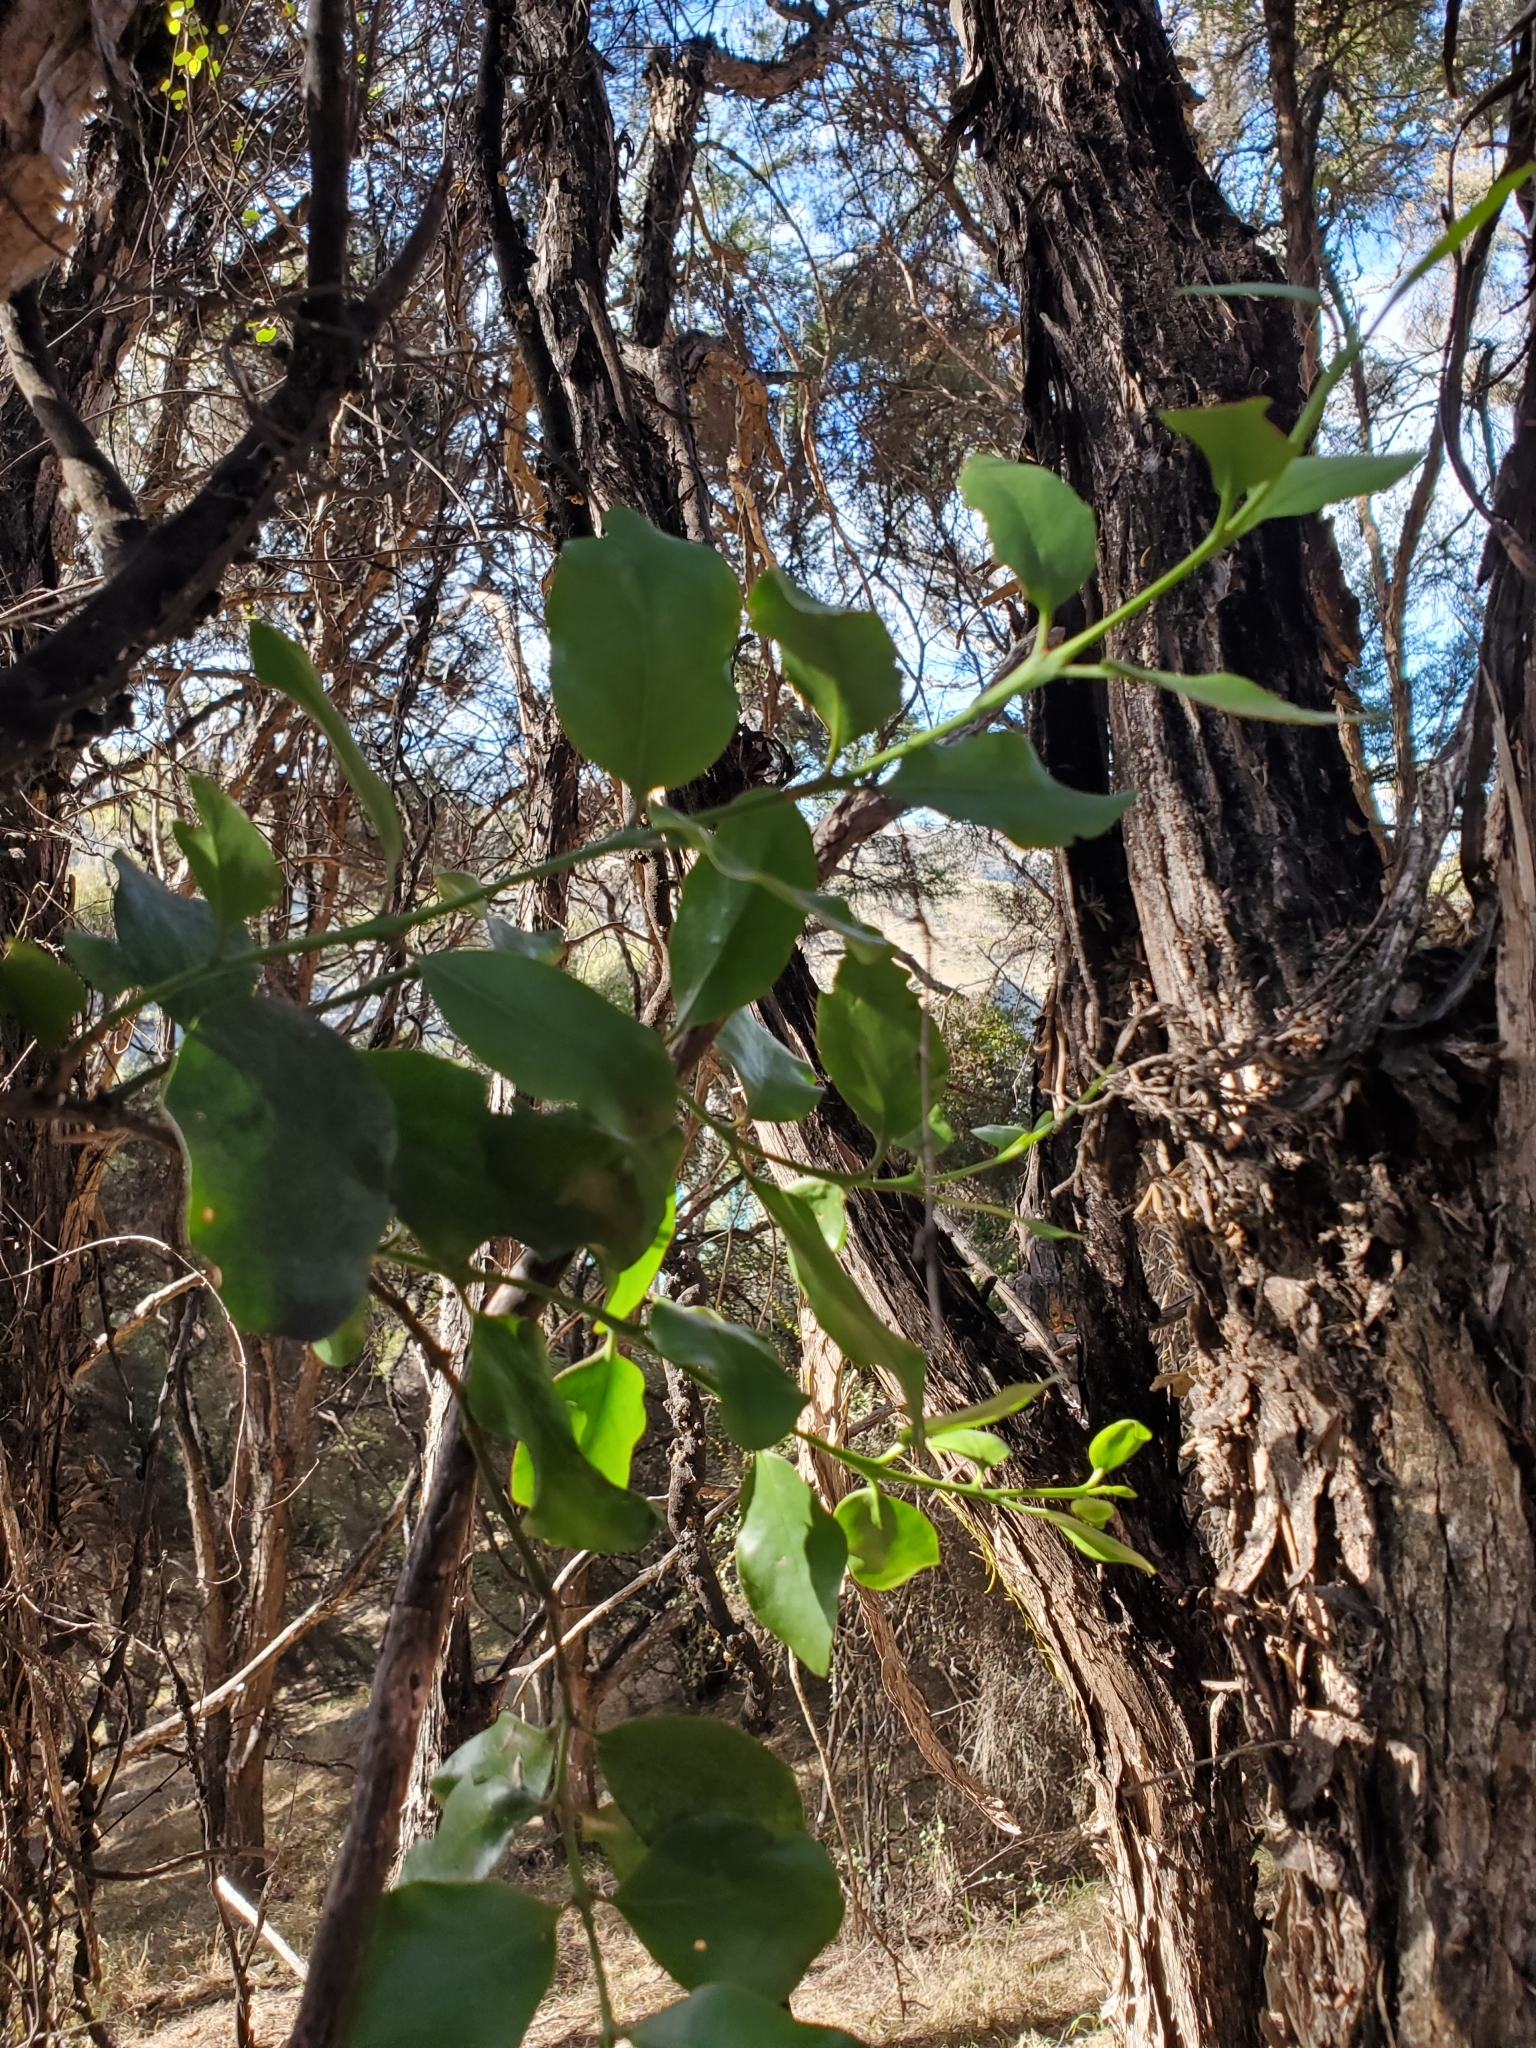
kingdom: Plantae
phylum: Tracheophyta
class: Magnoliopsida
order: Santalales
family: Loranthaceae
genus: Ileostylus
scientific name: Ileostylus micranthus
